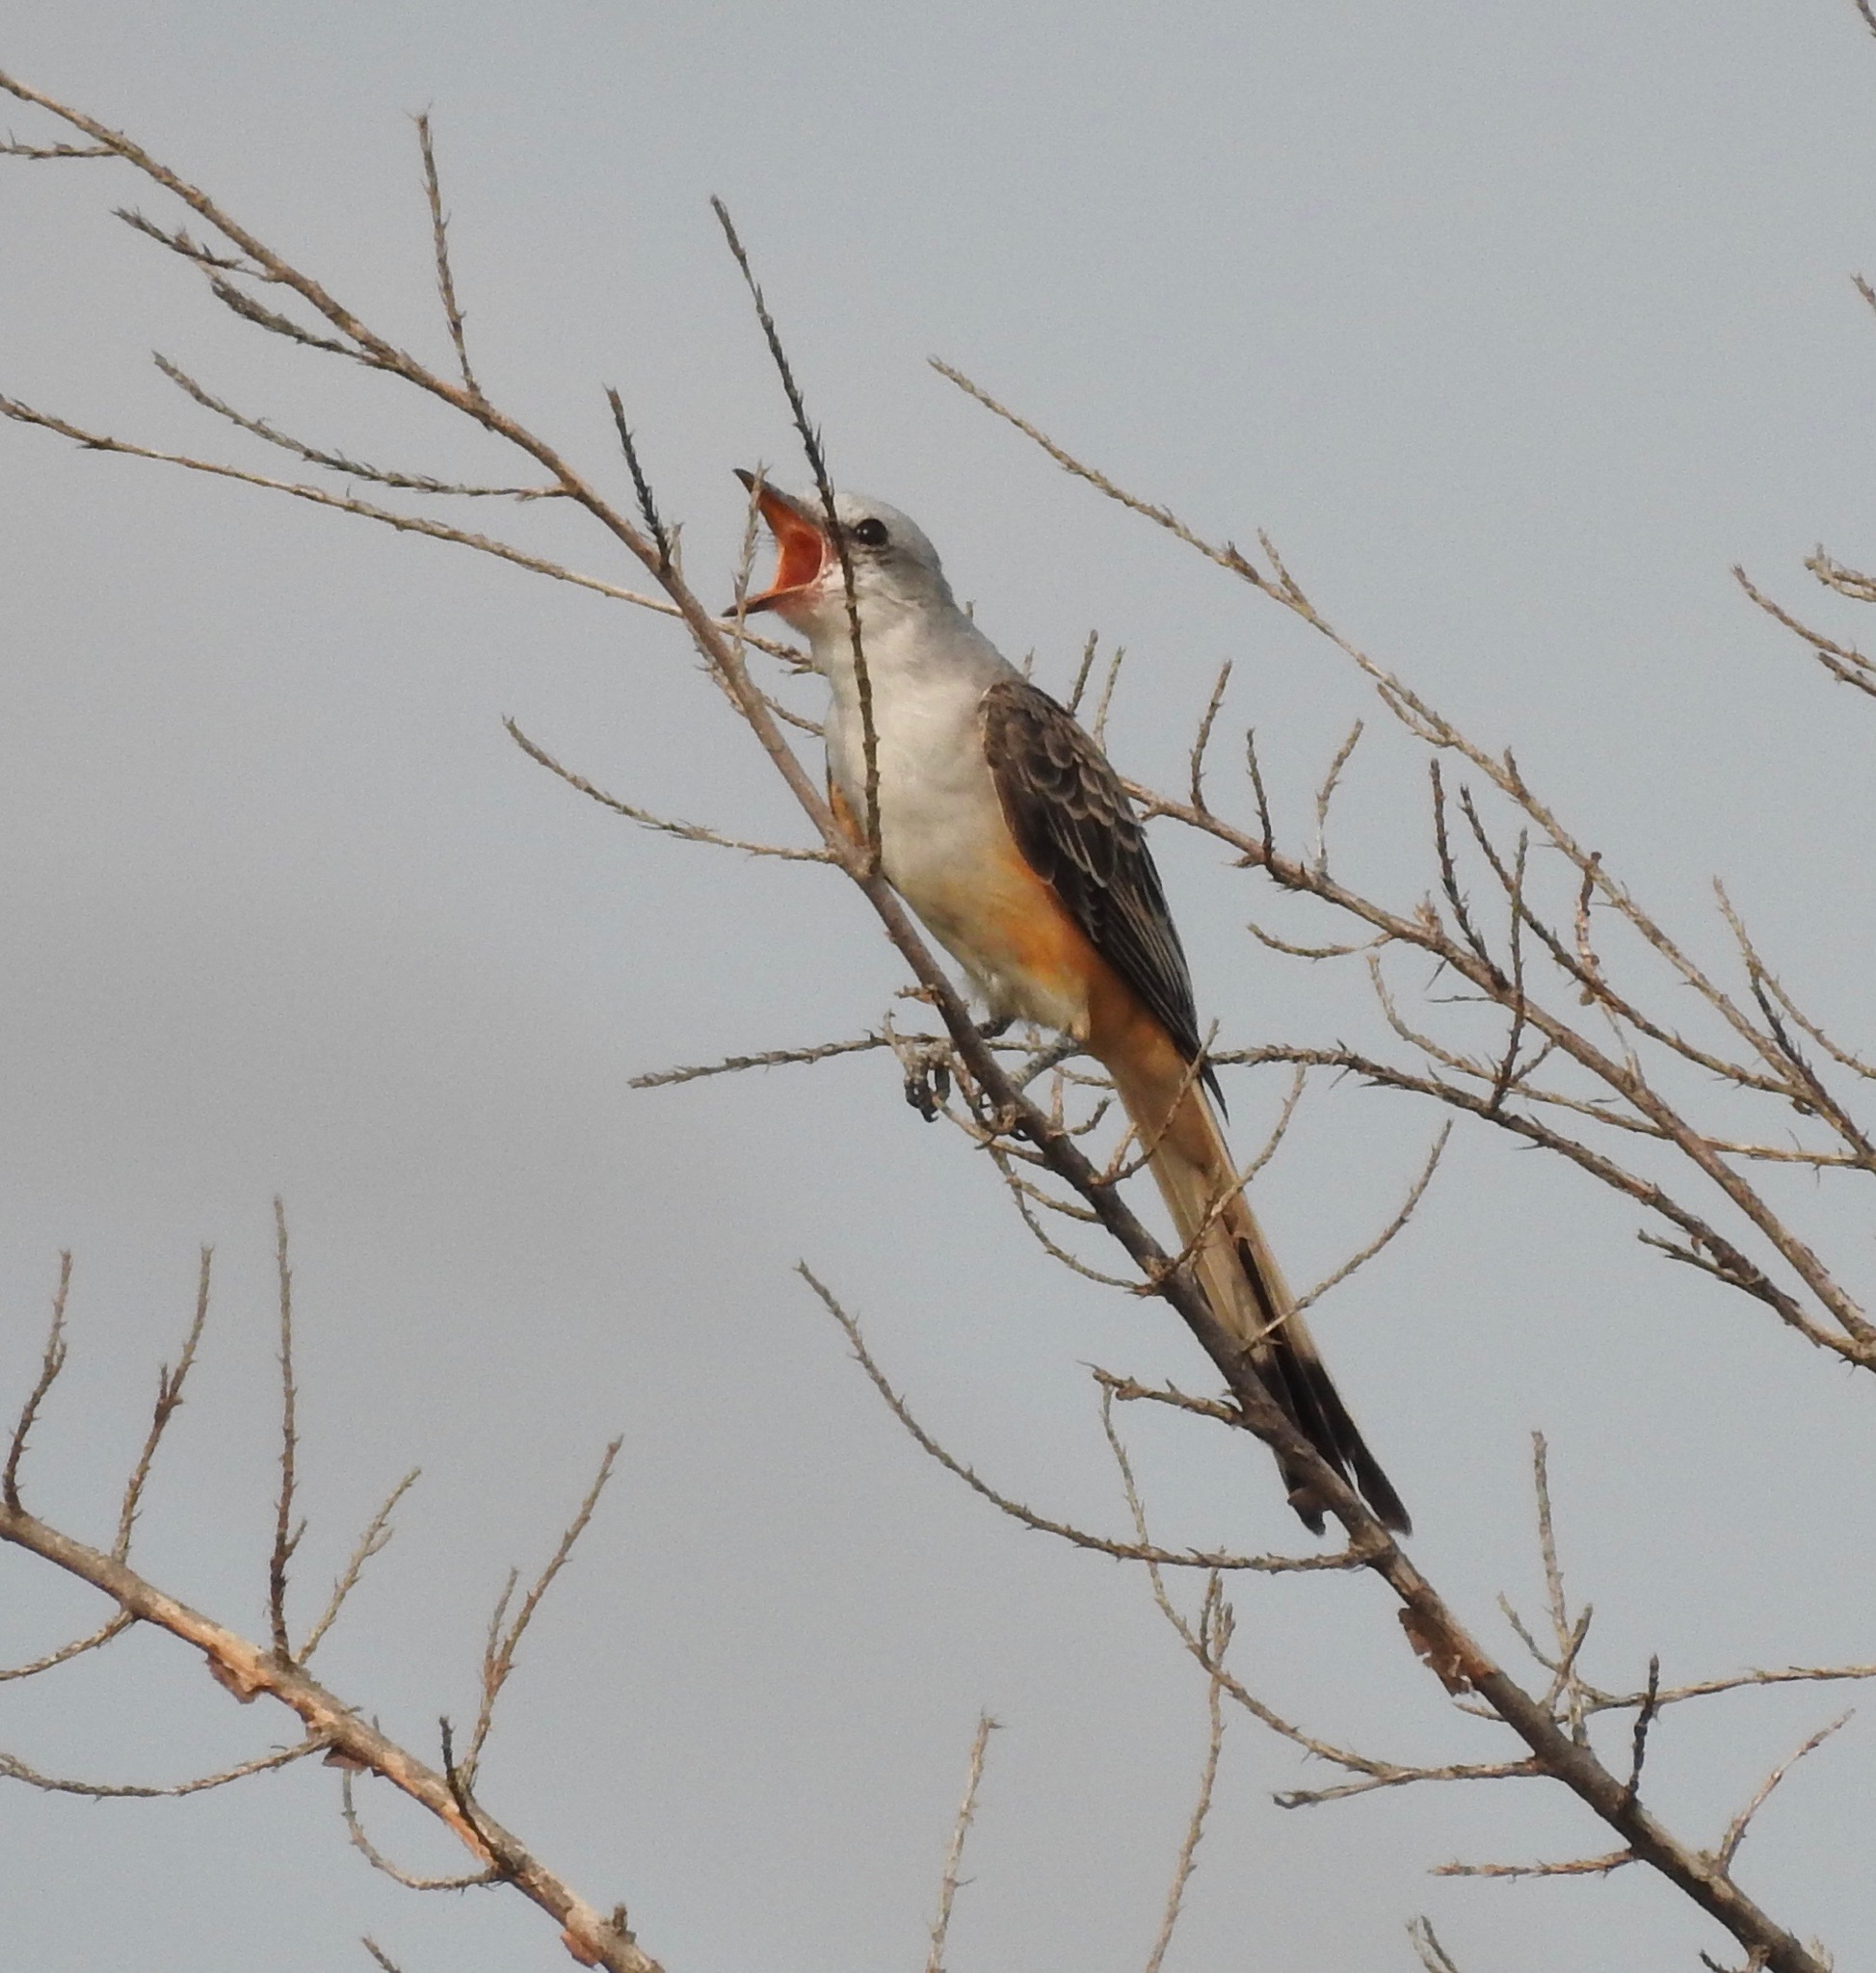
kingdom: Animalia
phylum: Chordata
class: Aves
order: Passeriformes
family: Tyrannidae
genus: Tyrannus
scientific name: Tyrannus forficatus
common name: Scissor-tailed flycatcher
